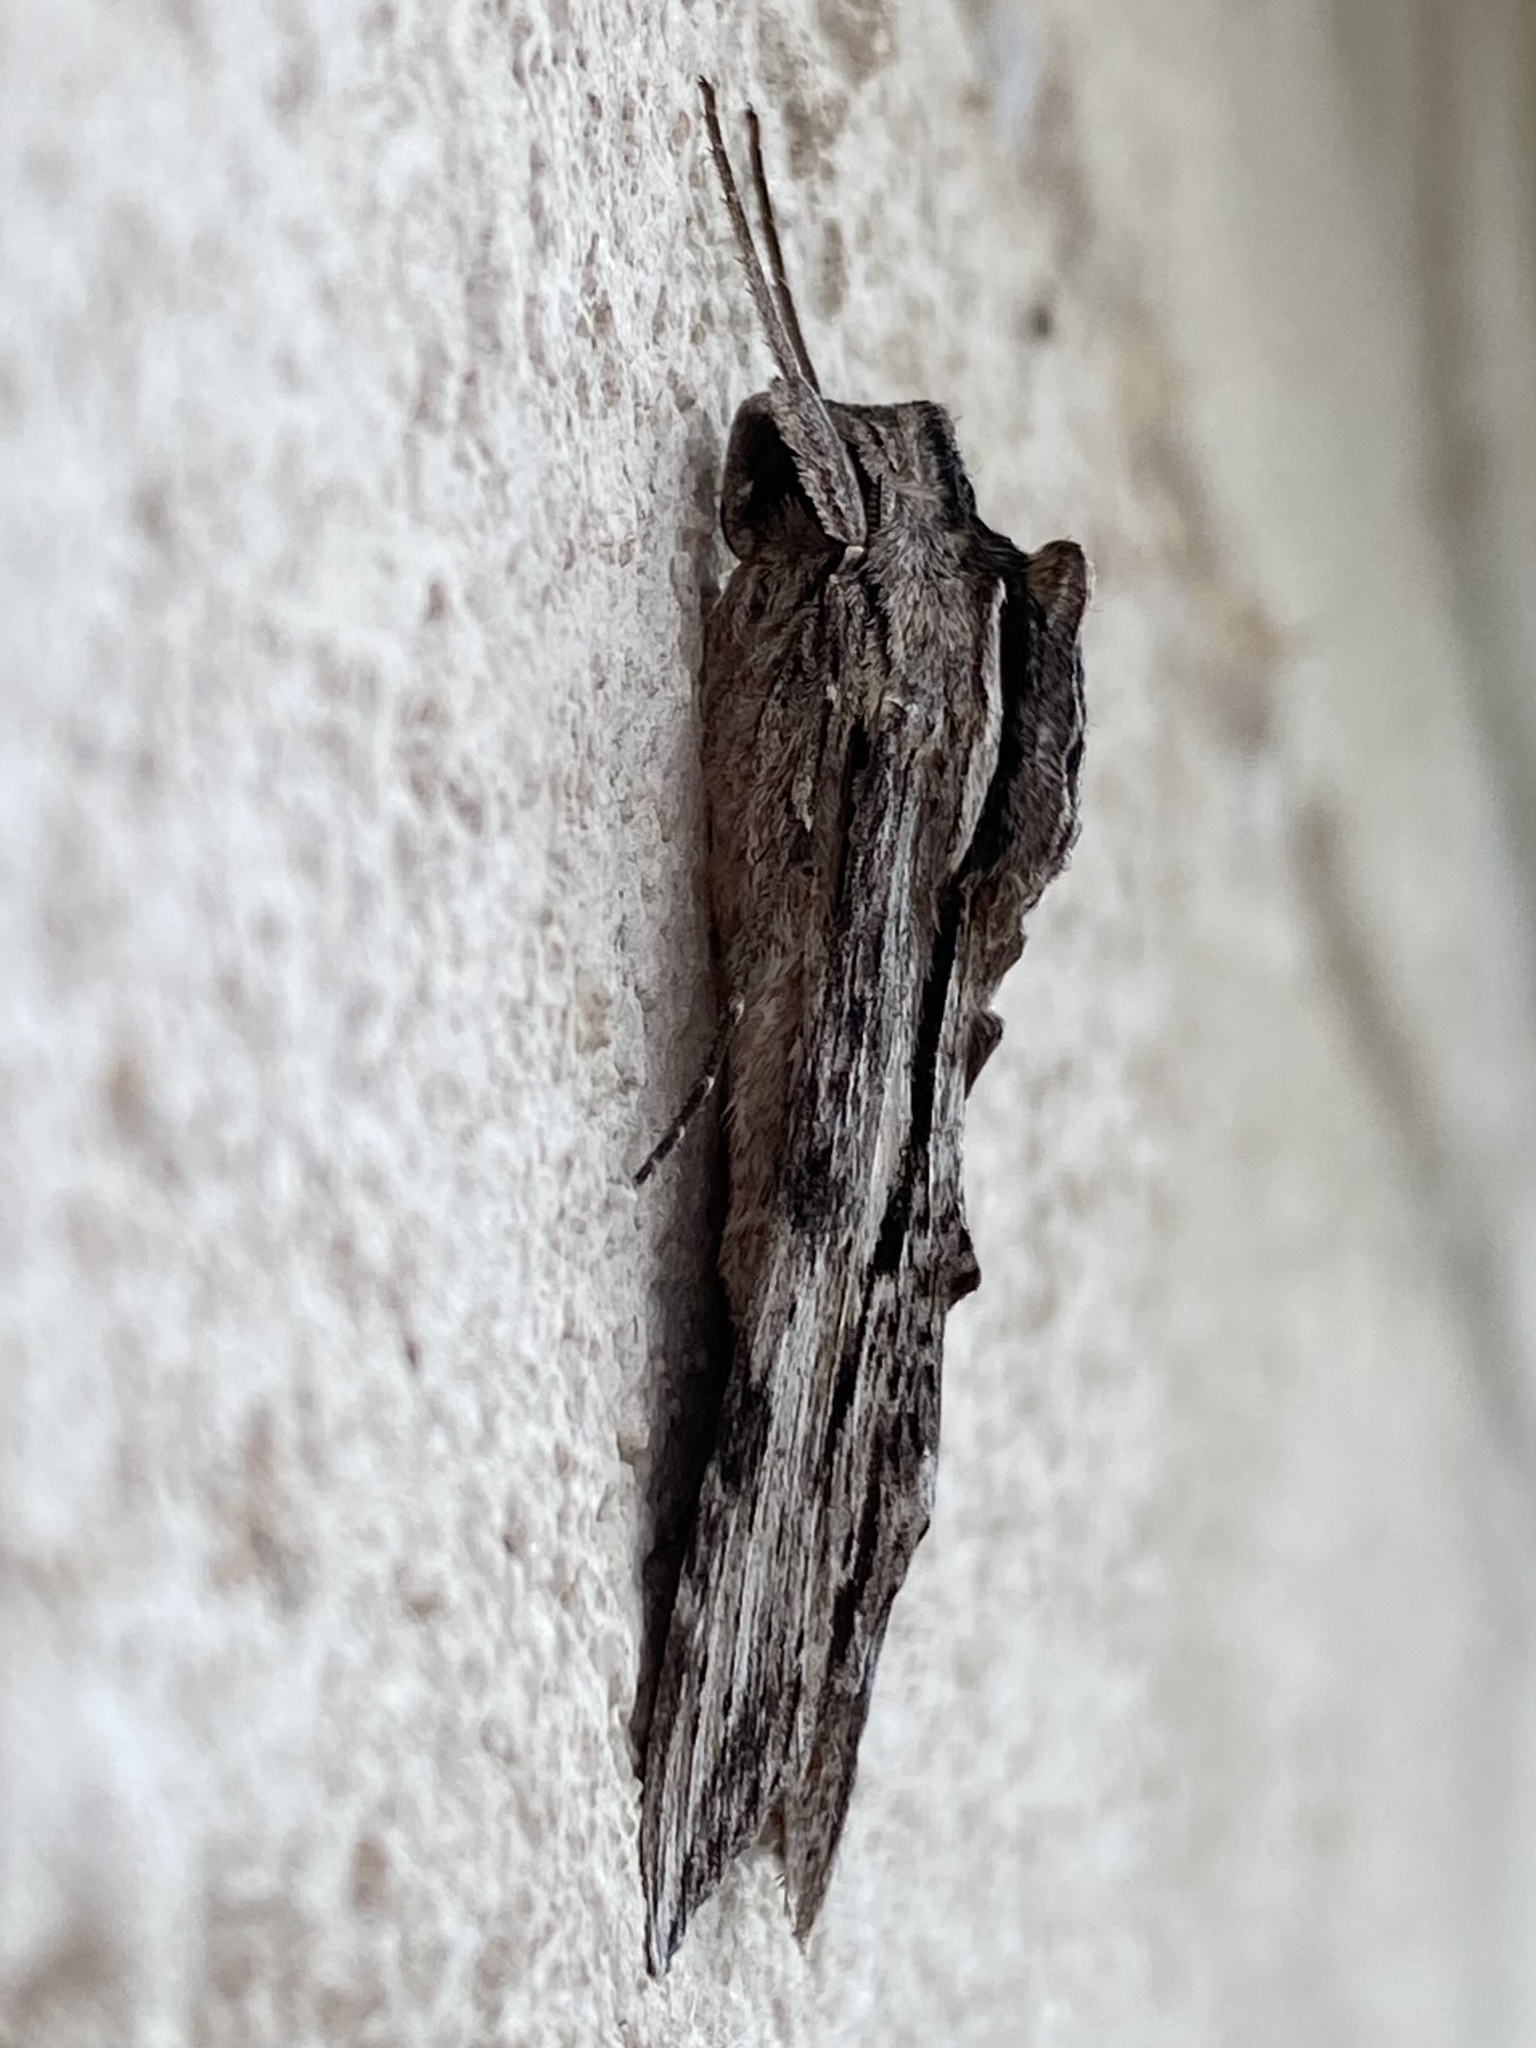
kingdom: Animalia
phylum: Arthropoda
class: Insecta
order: Lepidoptera
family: Sphingidae
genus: Erinnyis
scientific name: Erinnyis obscura
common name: Obscure sphinx
